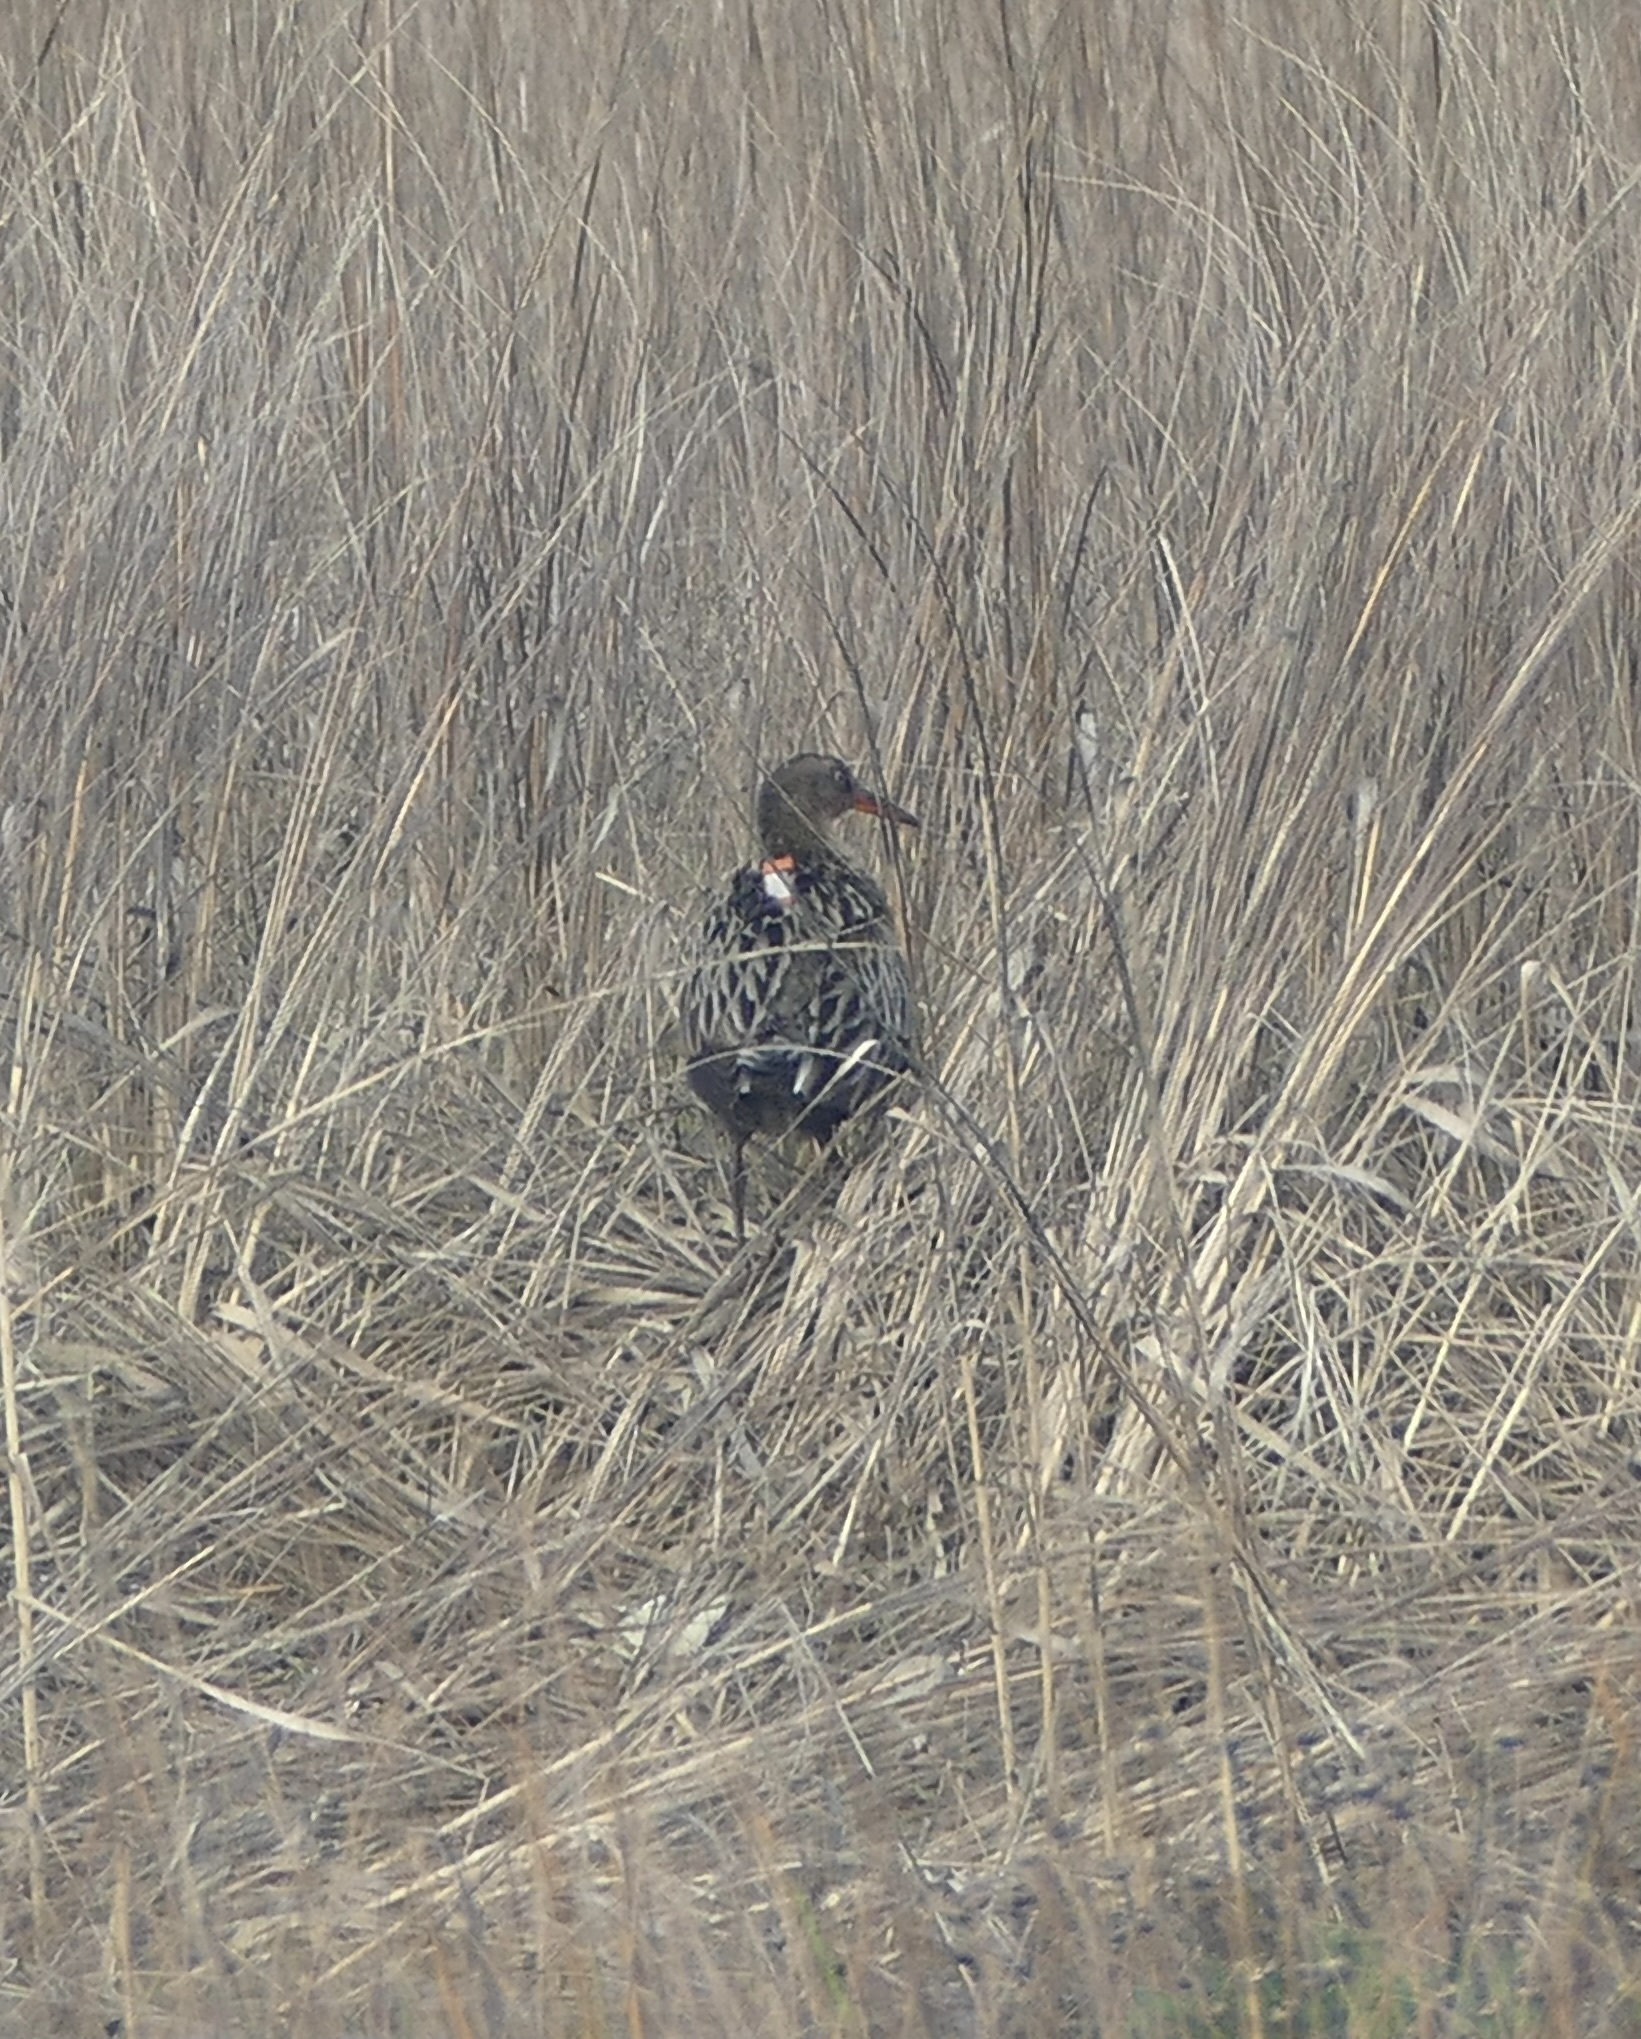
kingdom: Animalia
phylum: Chordata
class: Aves
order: Gruiformes
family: Rallidae
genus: Rallus
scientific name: Rallus obsoletus
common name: Ridgway's rail
